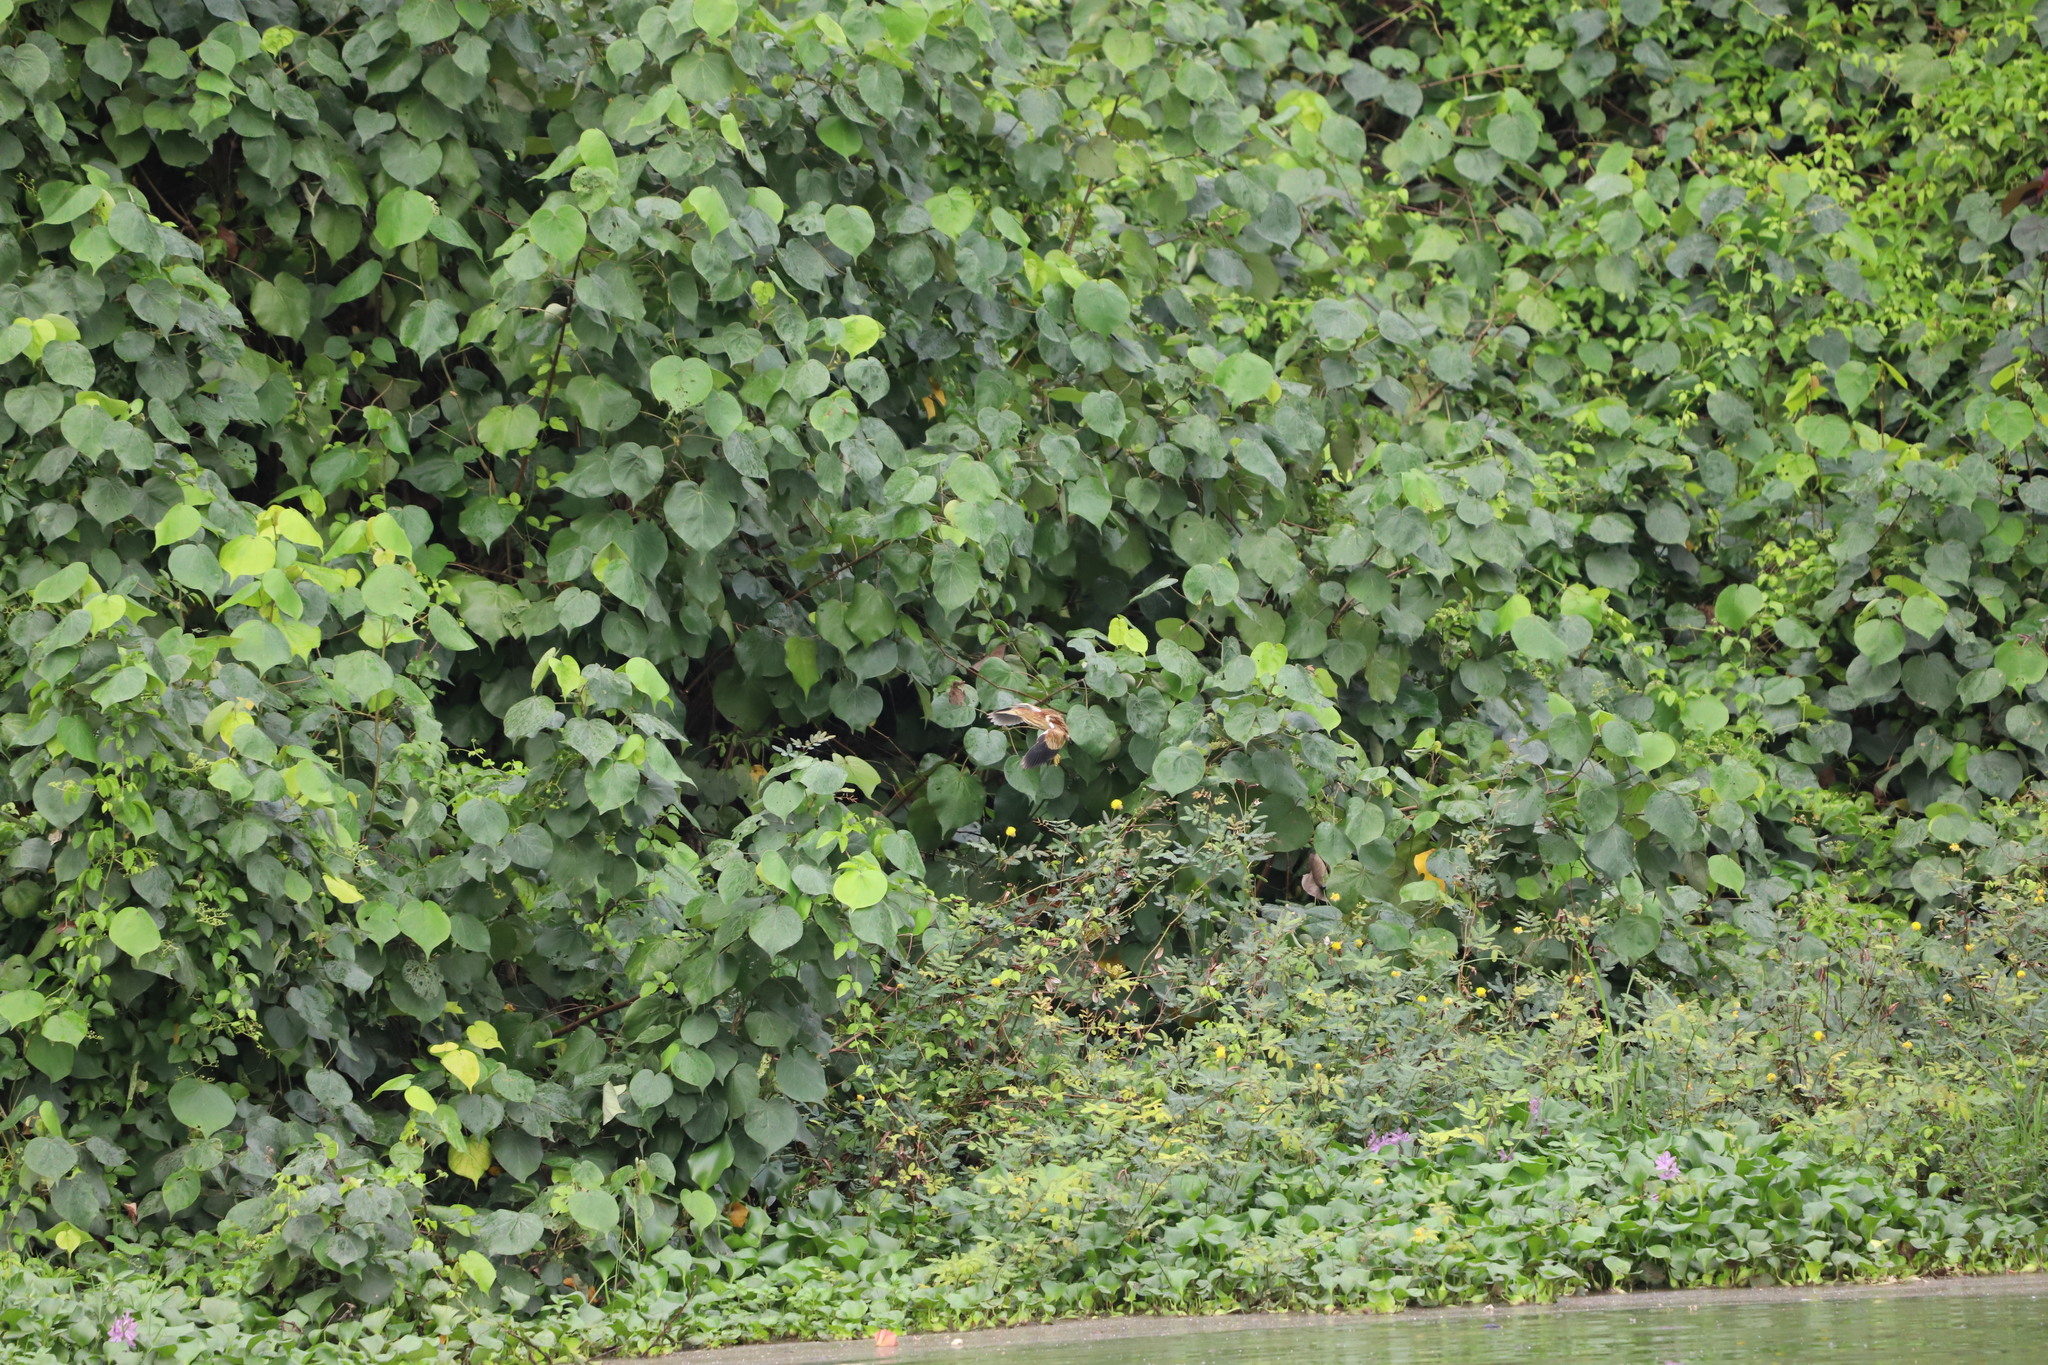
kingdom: Animalia
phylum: Chordata
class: Aves
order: Pelecaniformes
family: Ardeidae
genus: Ixobrychus
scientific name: Ixobrychus sinensis
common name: Yellow bittern
